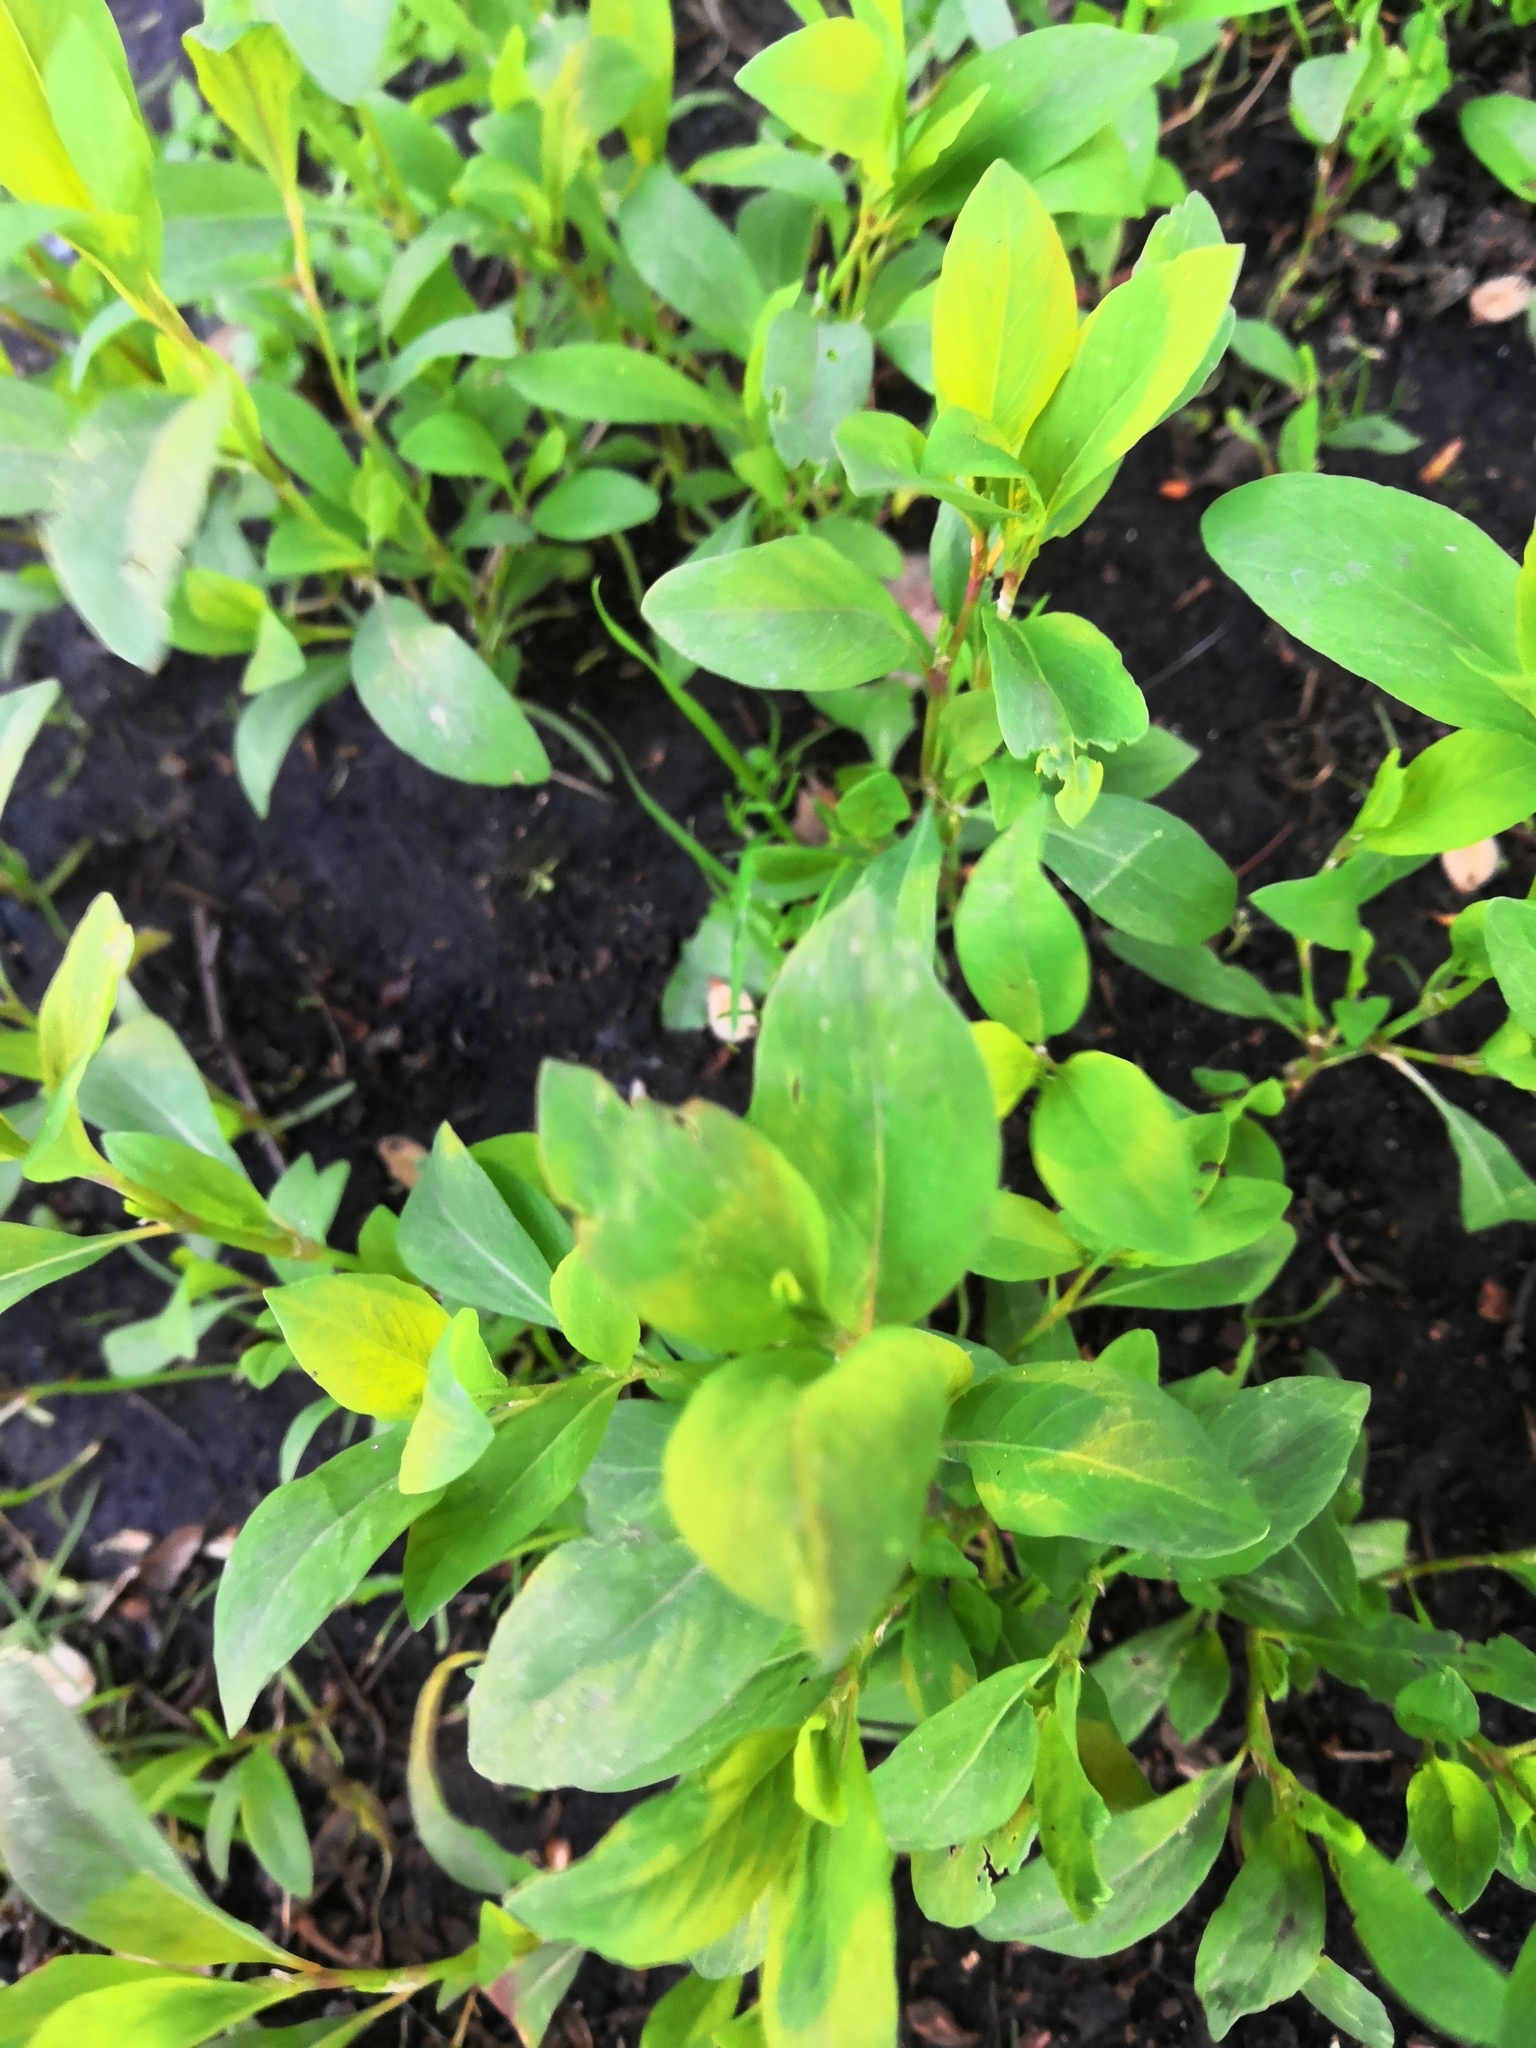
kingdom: Plantae
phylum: Tracheophyta
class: Magnoliopsida
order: Caryophyllales
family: Polygonaceae
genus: Polygonum
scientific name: Polygonum
